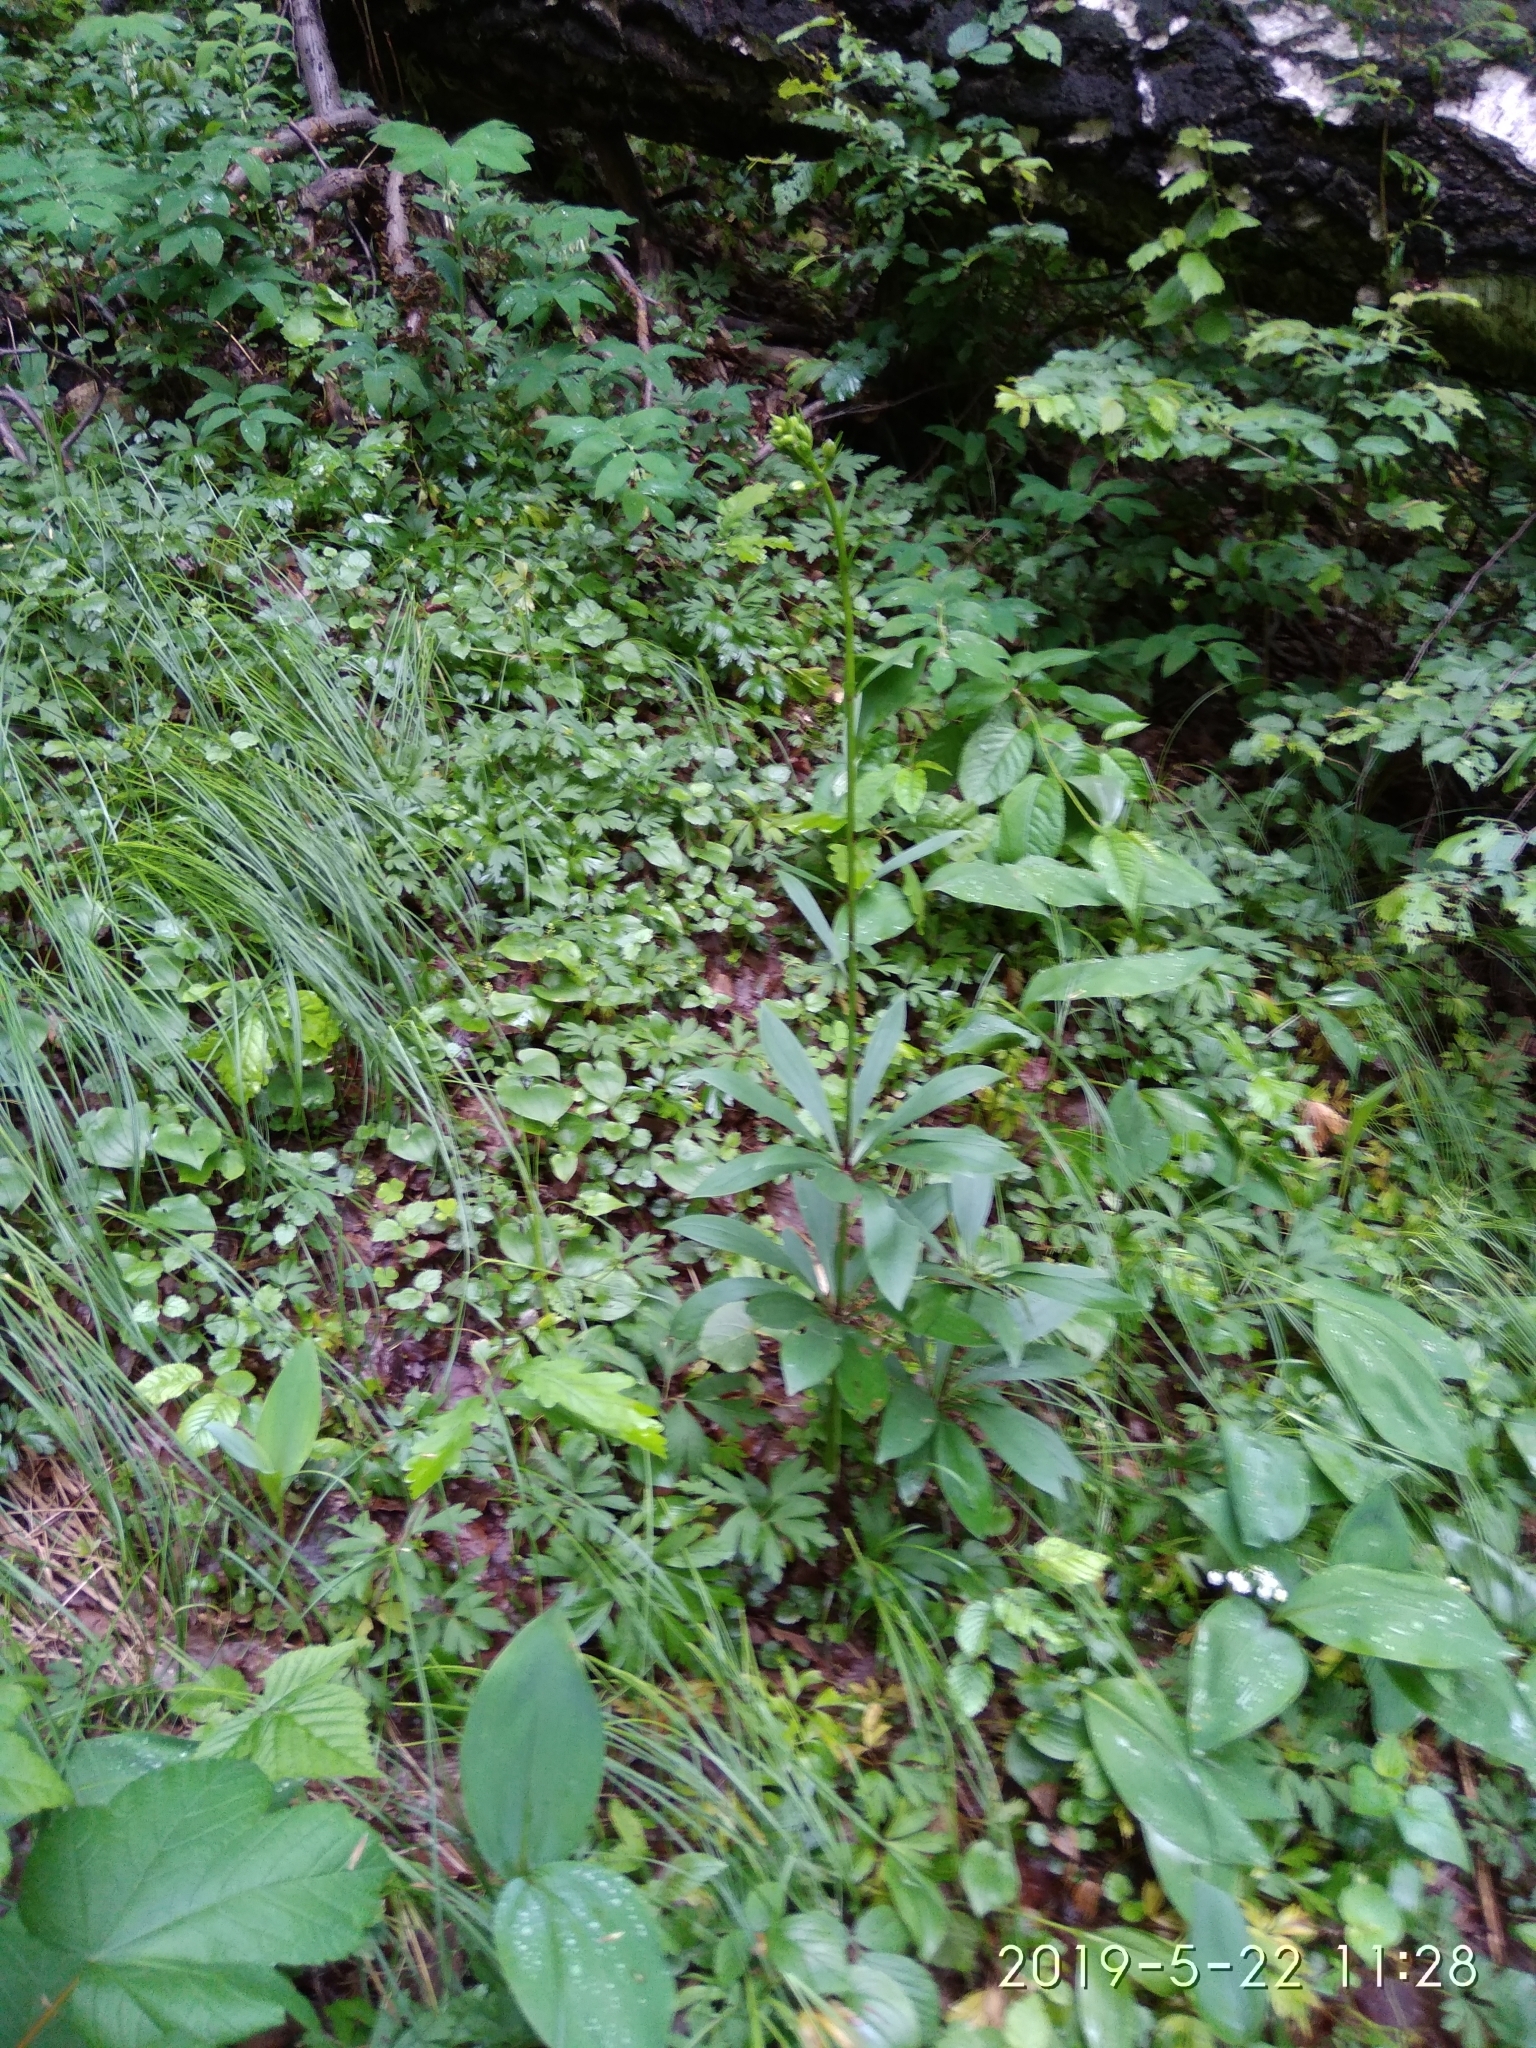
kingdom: Plantae
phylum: Tracheophyta
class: Liliopsida
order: Liliales
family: Liliaceae
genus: Lilium
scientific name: Lilium martagon
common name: Martagon lily
